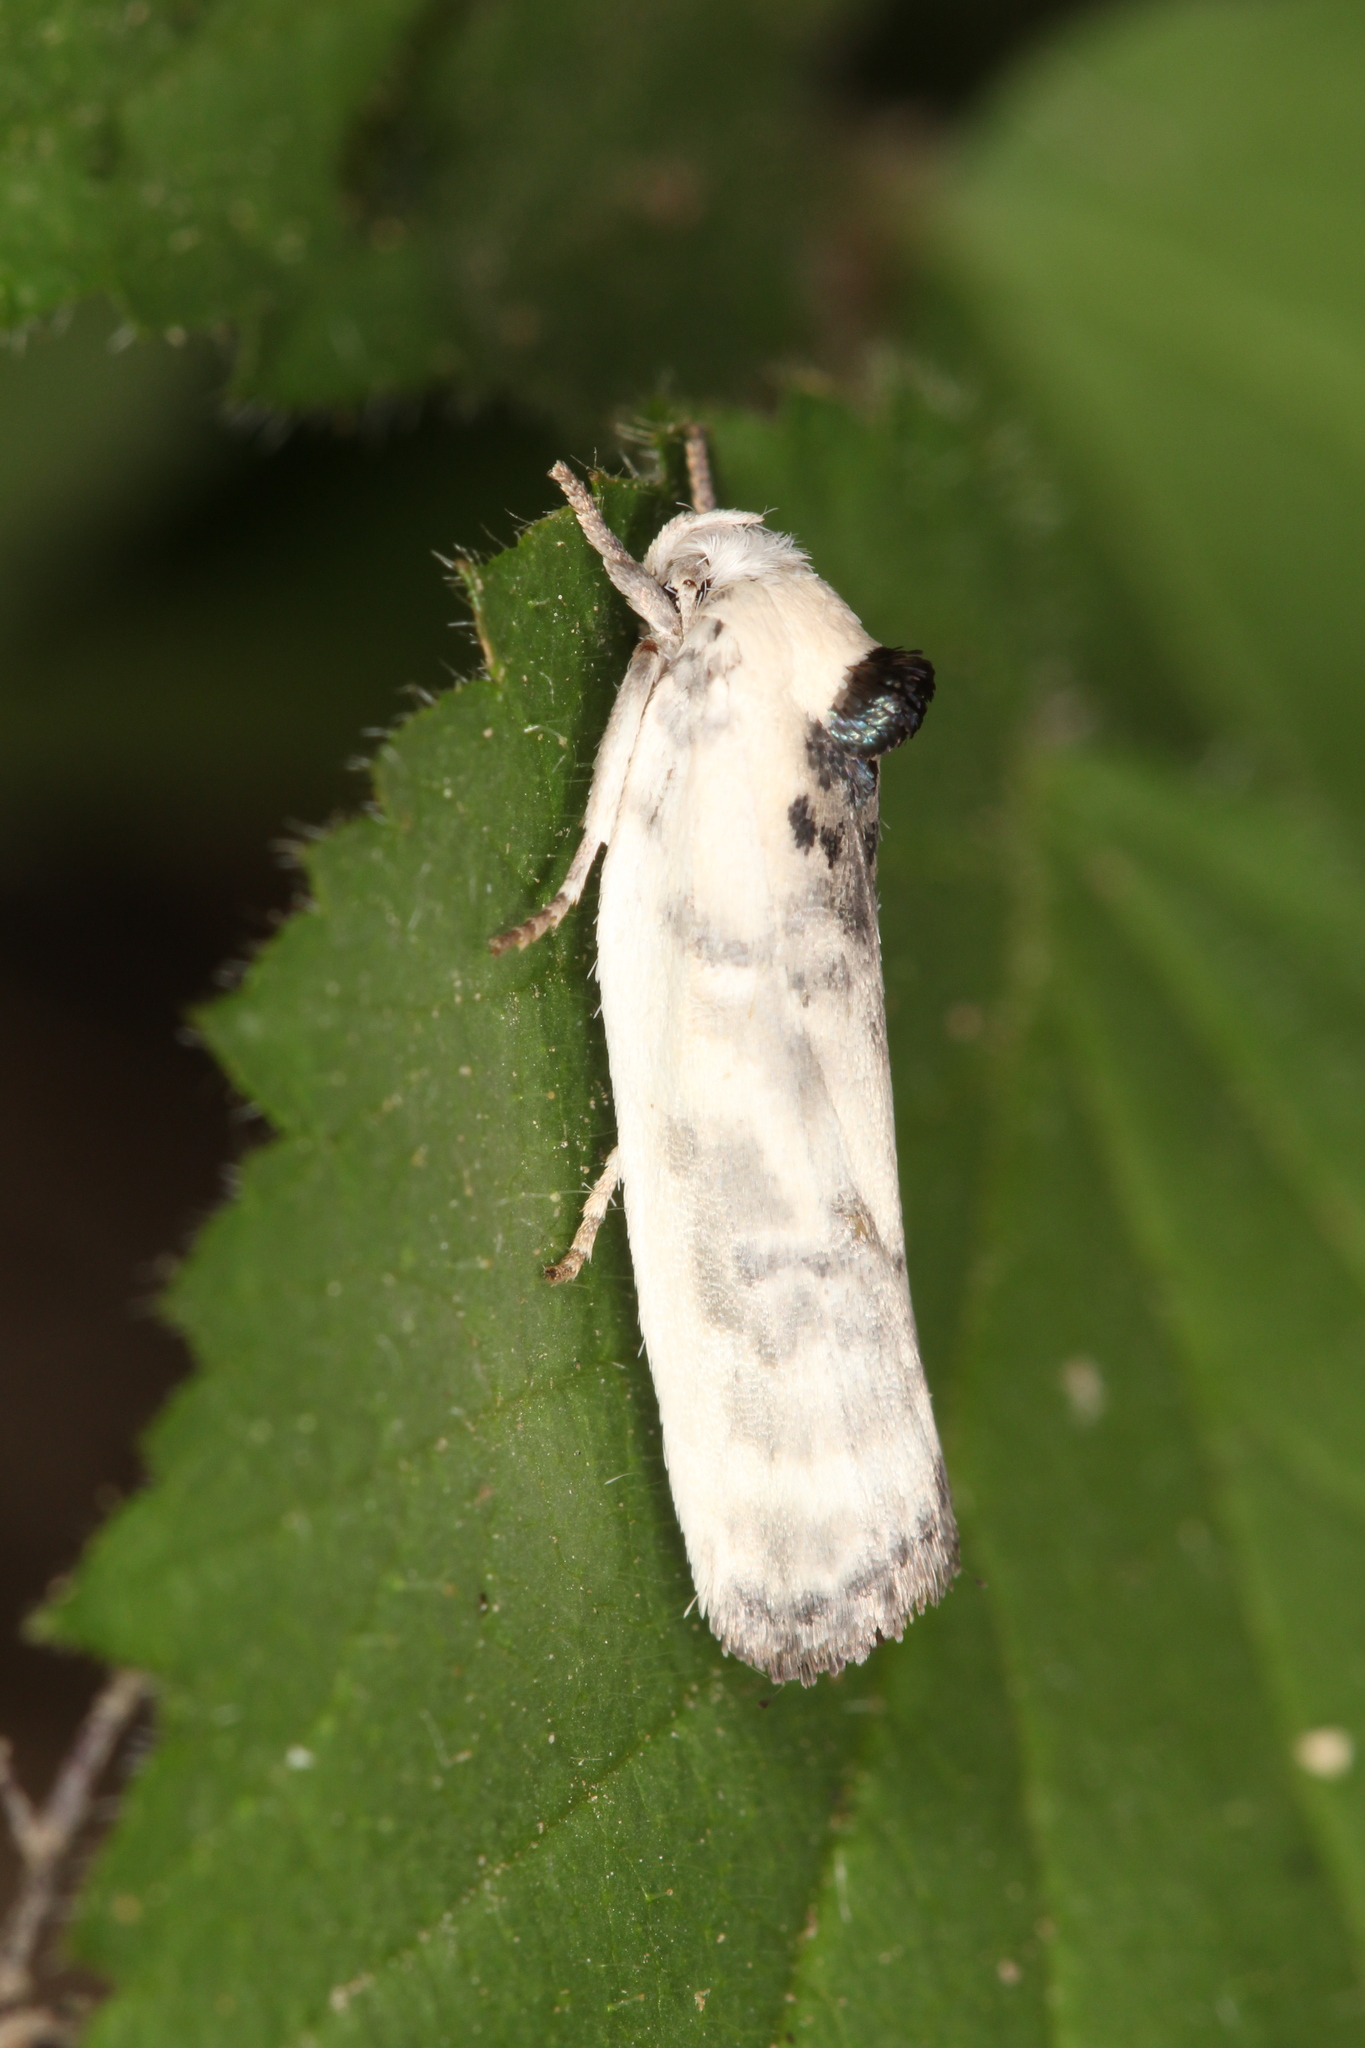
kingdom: Animalia
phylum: Arthropoda
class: Insecta
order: Lepidoptera
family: Depressariidae
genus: Antaeotricha
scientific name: Antaeotricha schlaegeri
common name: Schlaeger's fruitworm moth
